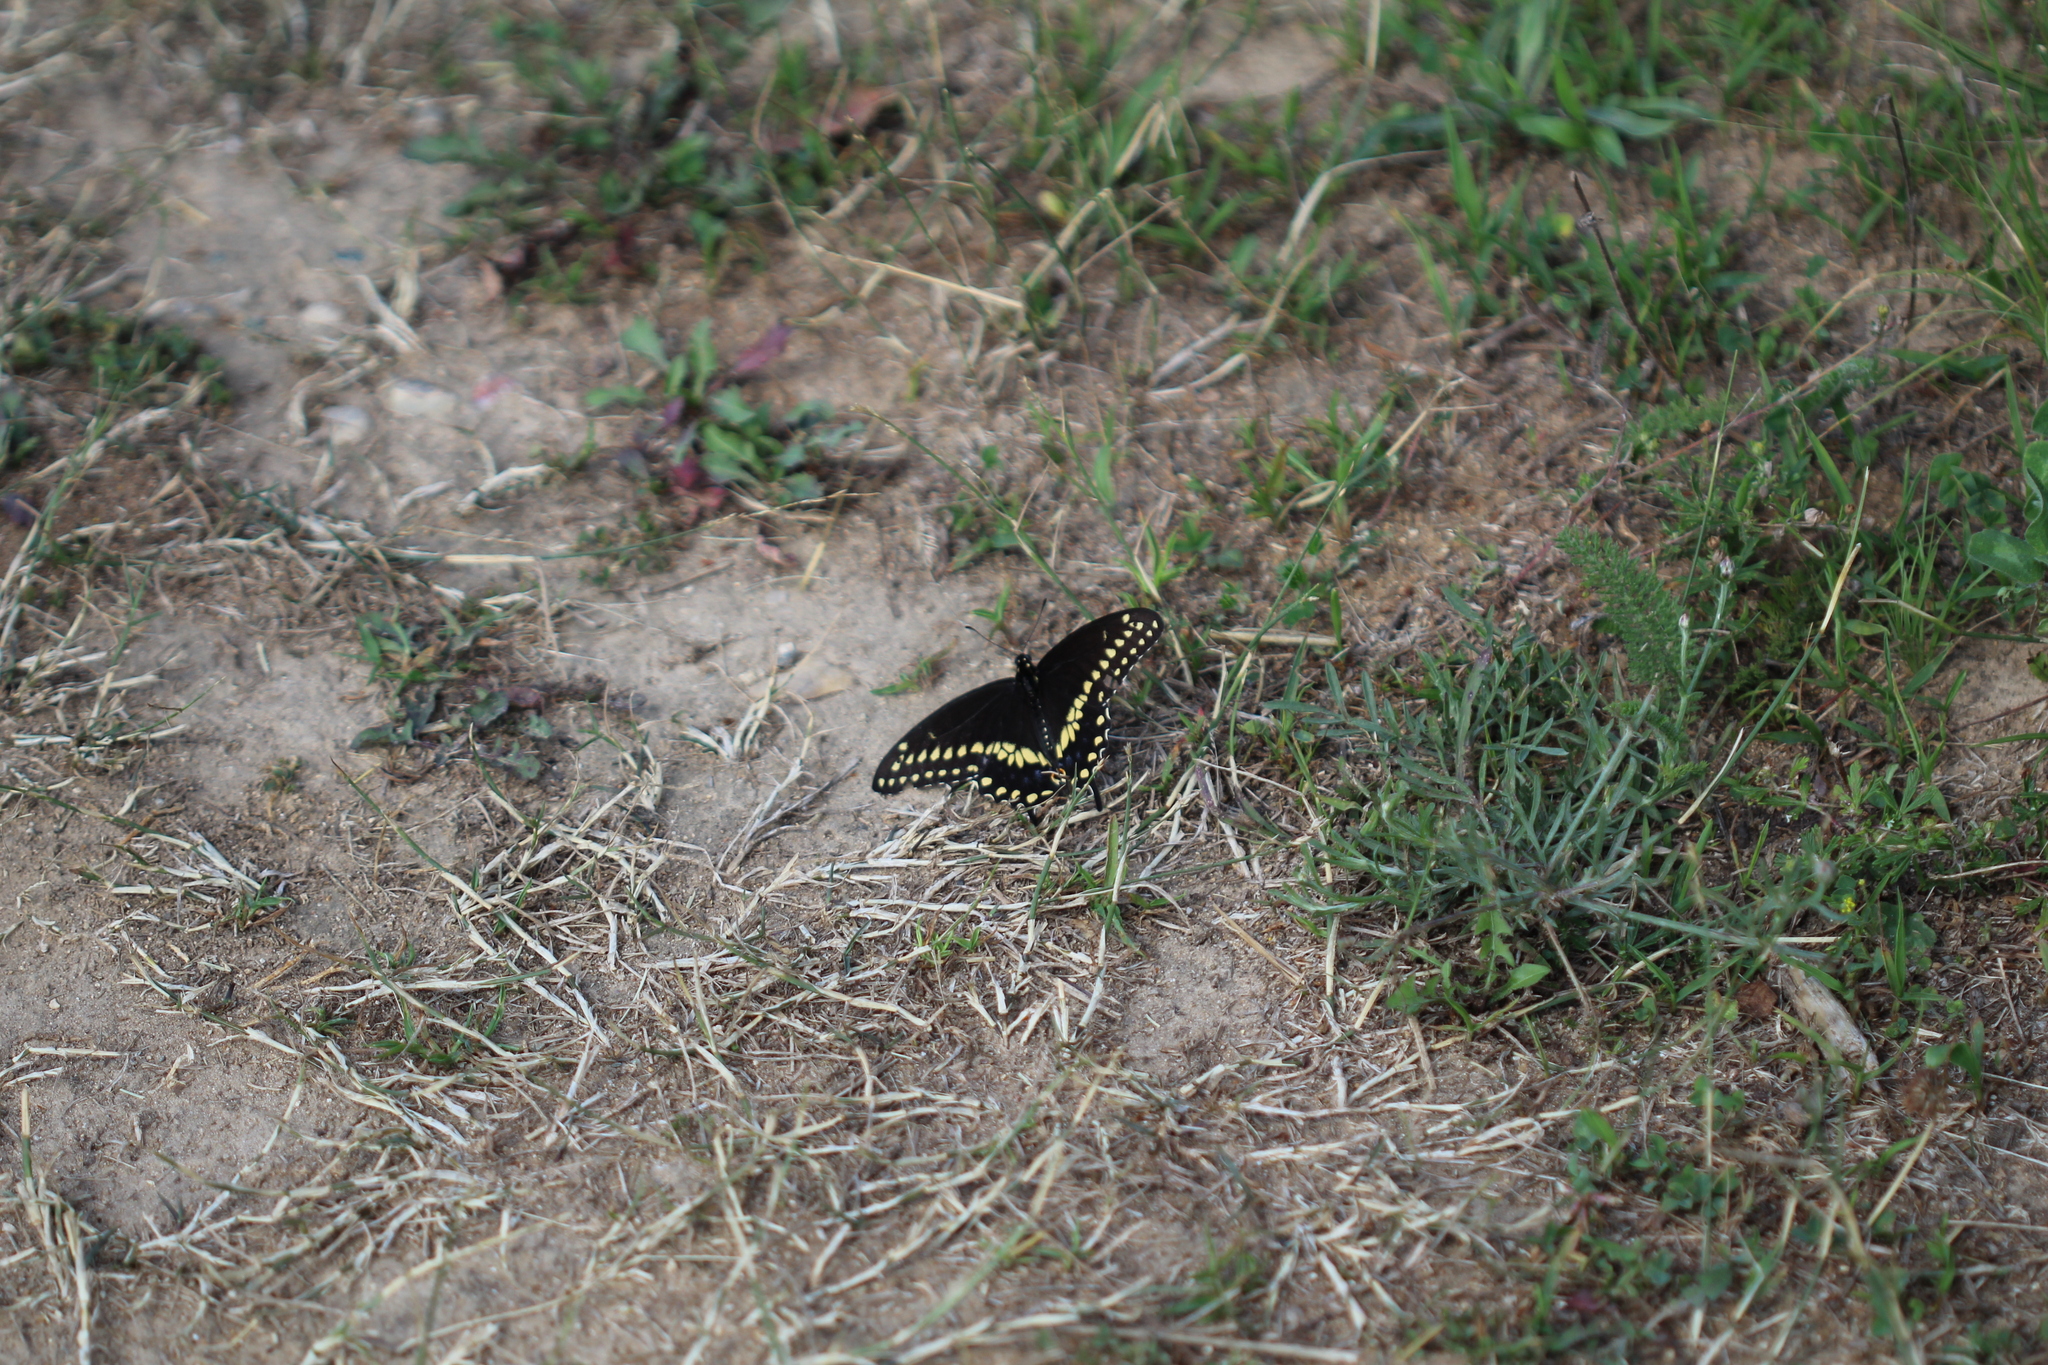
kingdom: Animalia
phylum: Arthropoda
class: Insecta
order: Lepidoptera
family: Papilionidae
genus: Papilio
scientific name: Papilio polyxenes
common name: Black swallowtail
